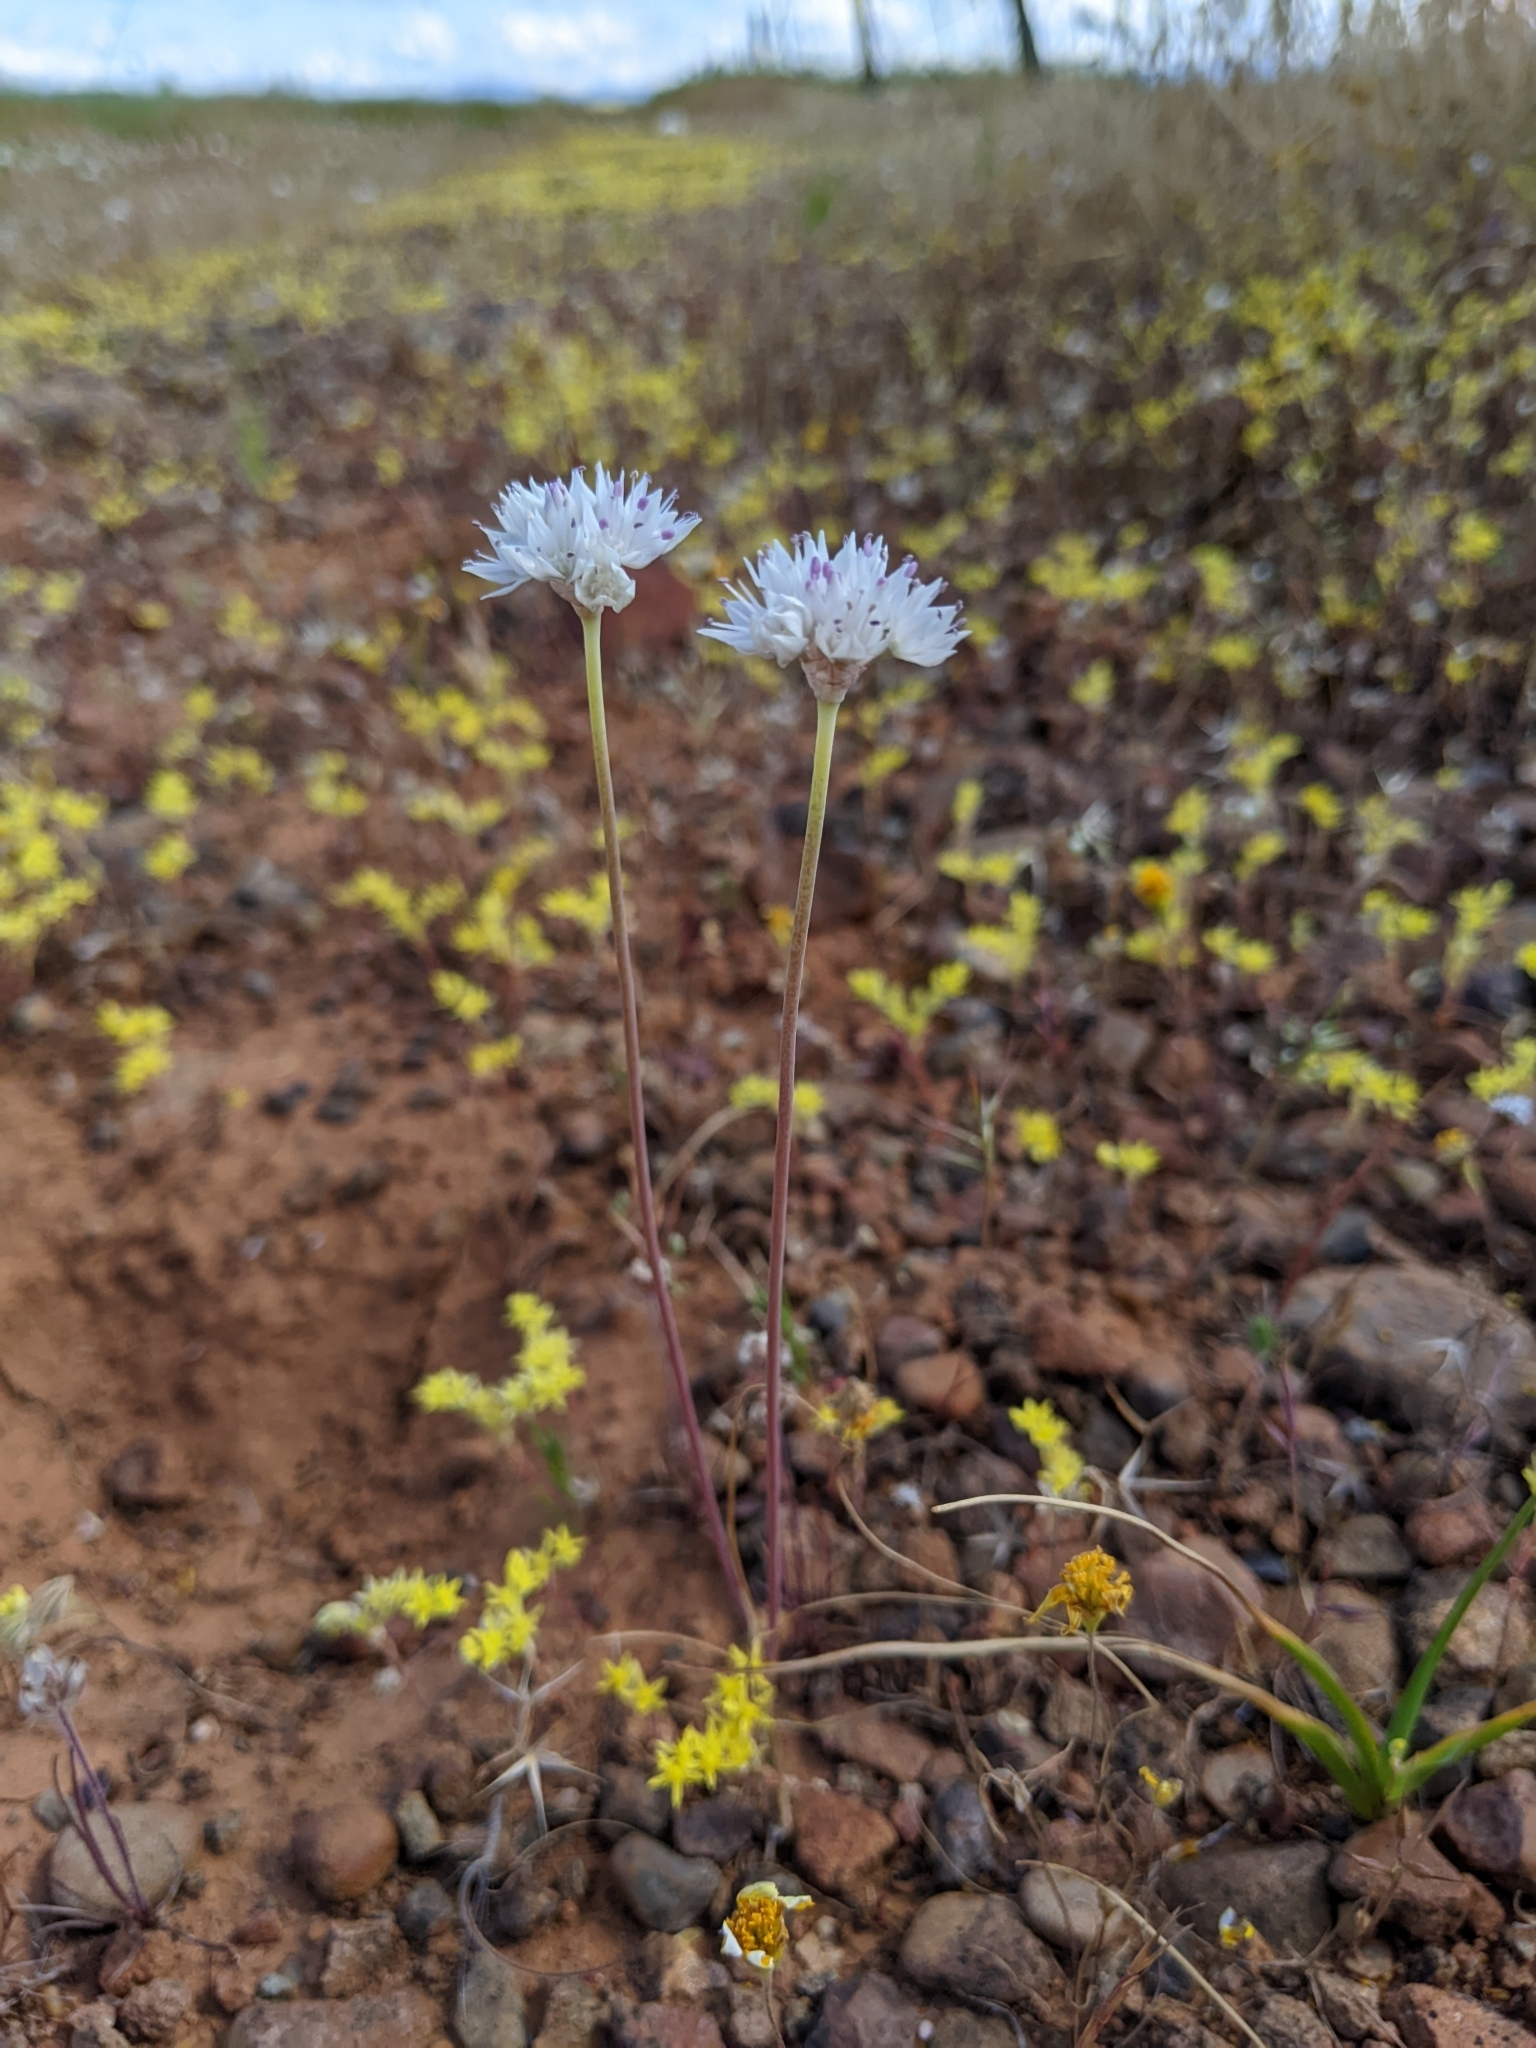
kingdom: Plantae
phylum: Tracheophyta
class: Liliopsida
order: Asparagales
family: Amaryllidaceae
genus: Allium
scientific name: Allium amplectens
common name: Narrow-leaved onion
